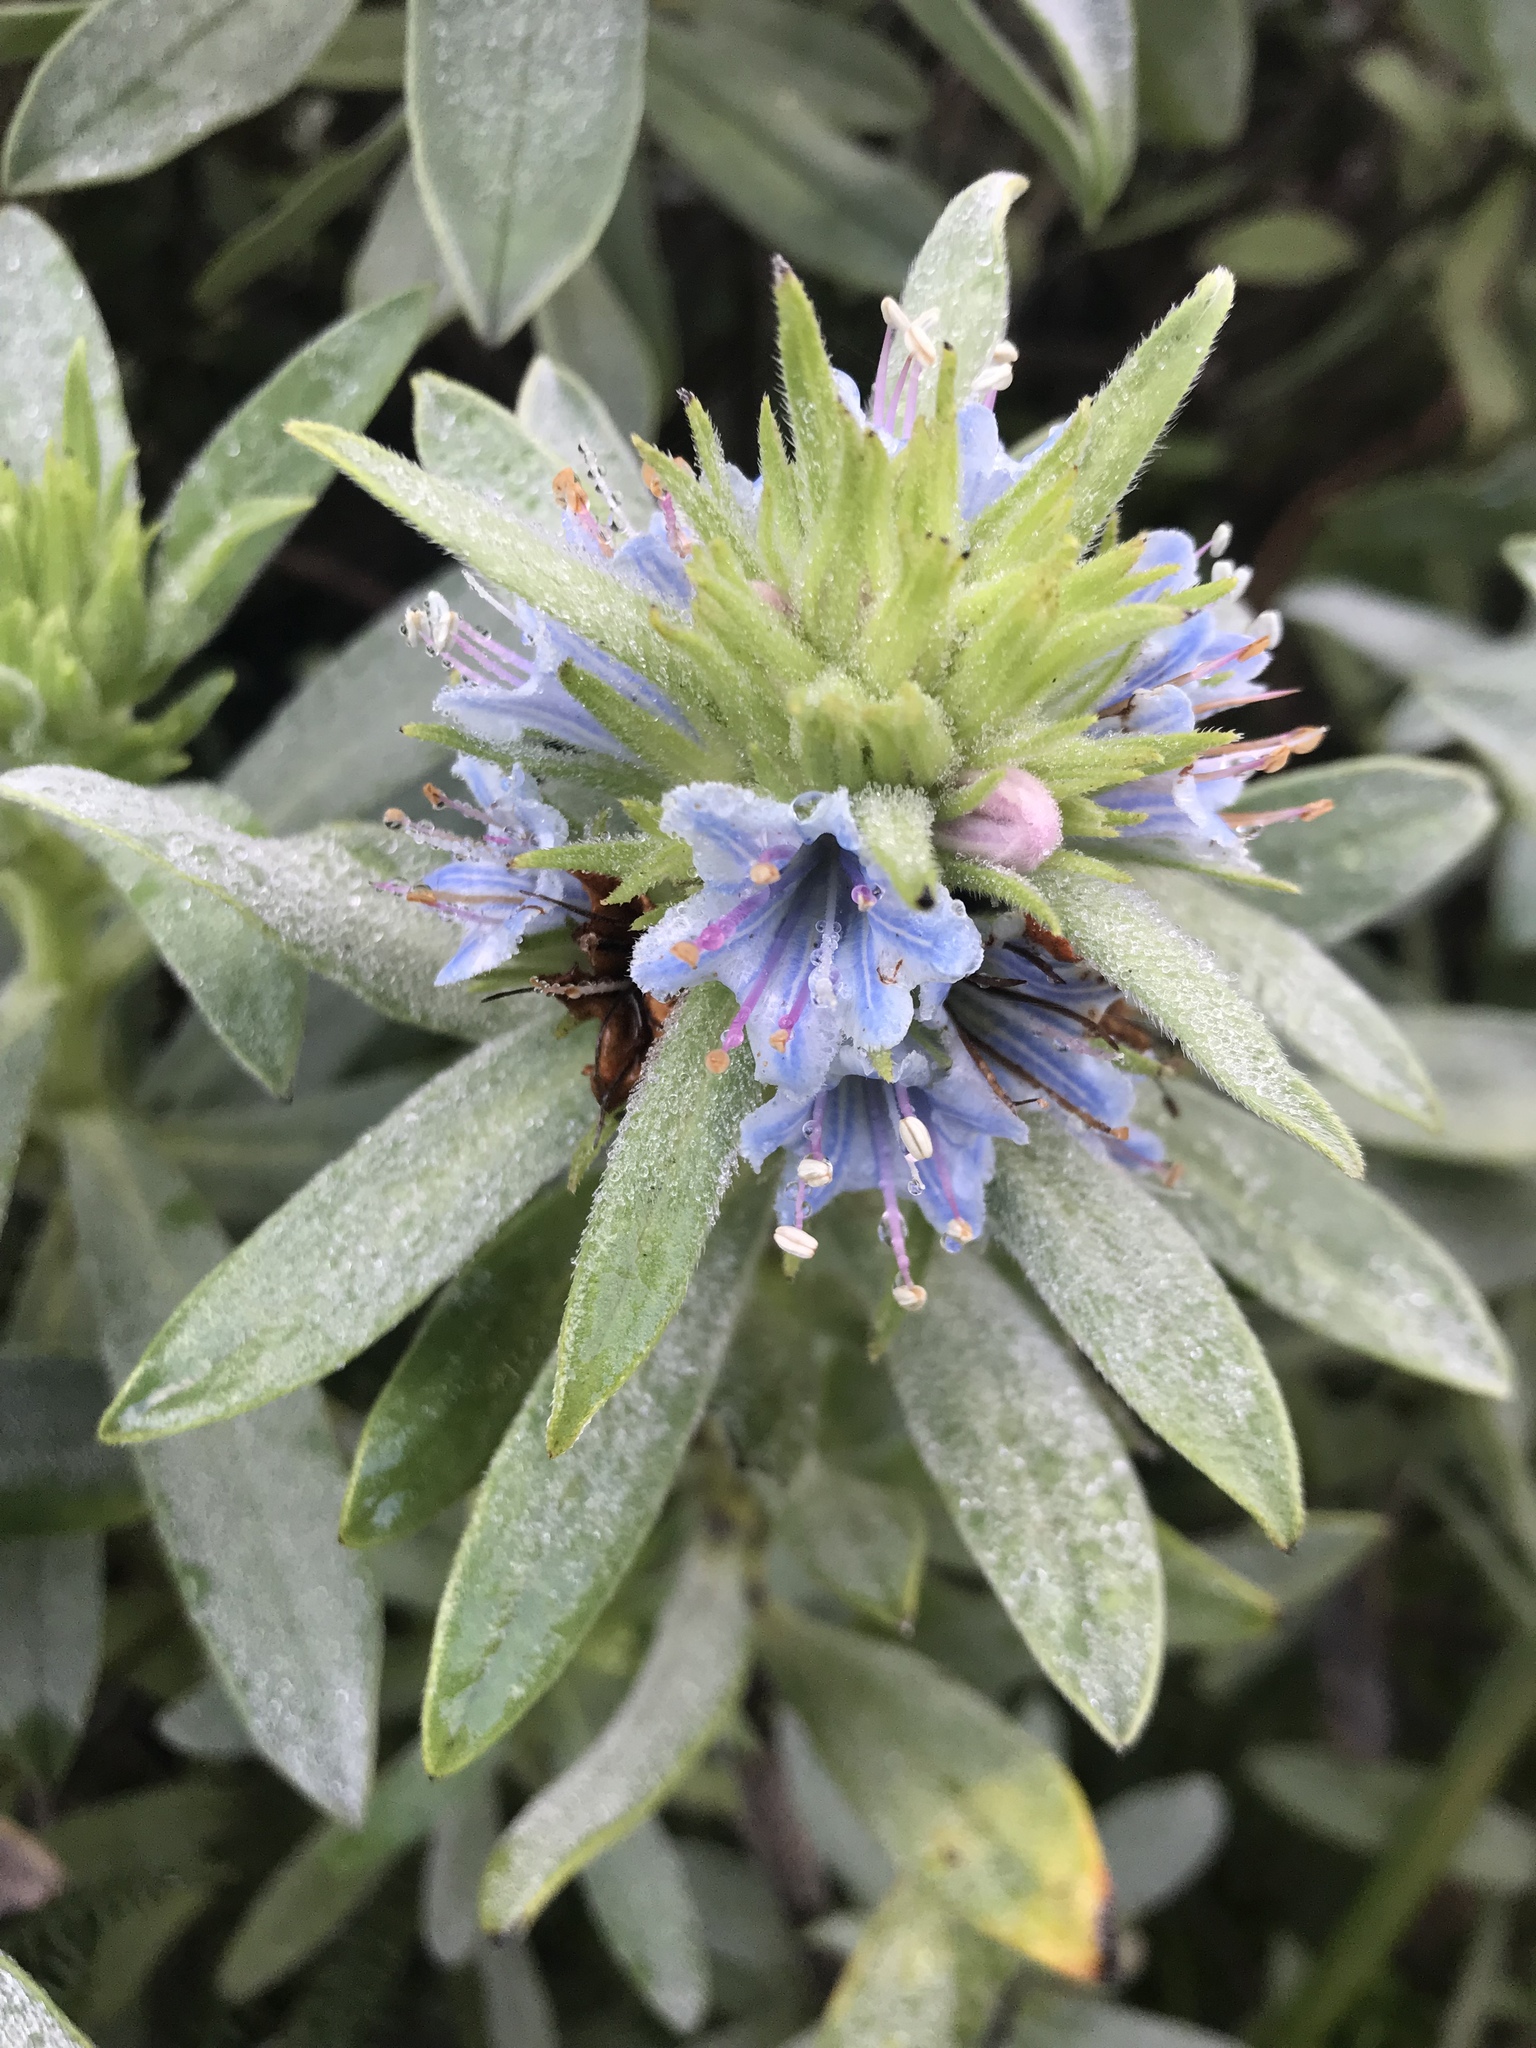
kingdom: Plantae
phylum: Tracheophyta
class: Magnoliopsida
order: Boraginales
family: Boraginaceae
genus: Lobostemon
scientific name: Lobostemon montanus
